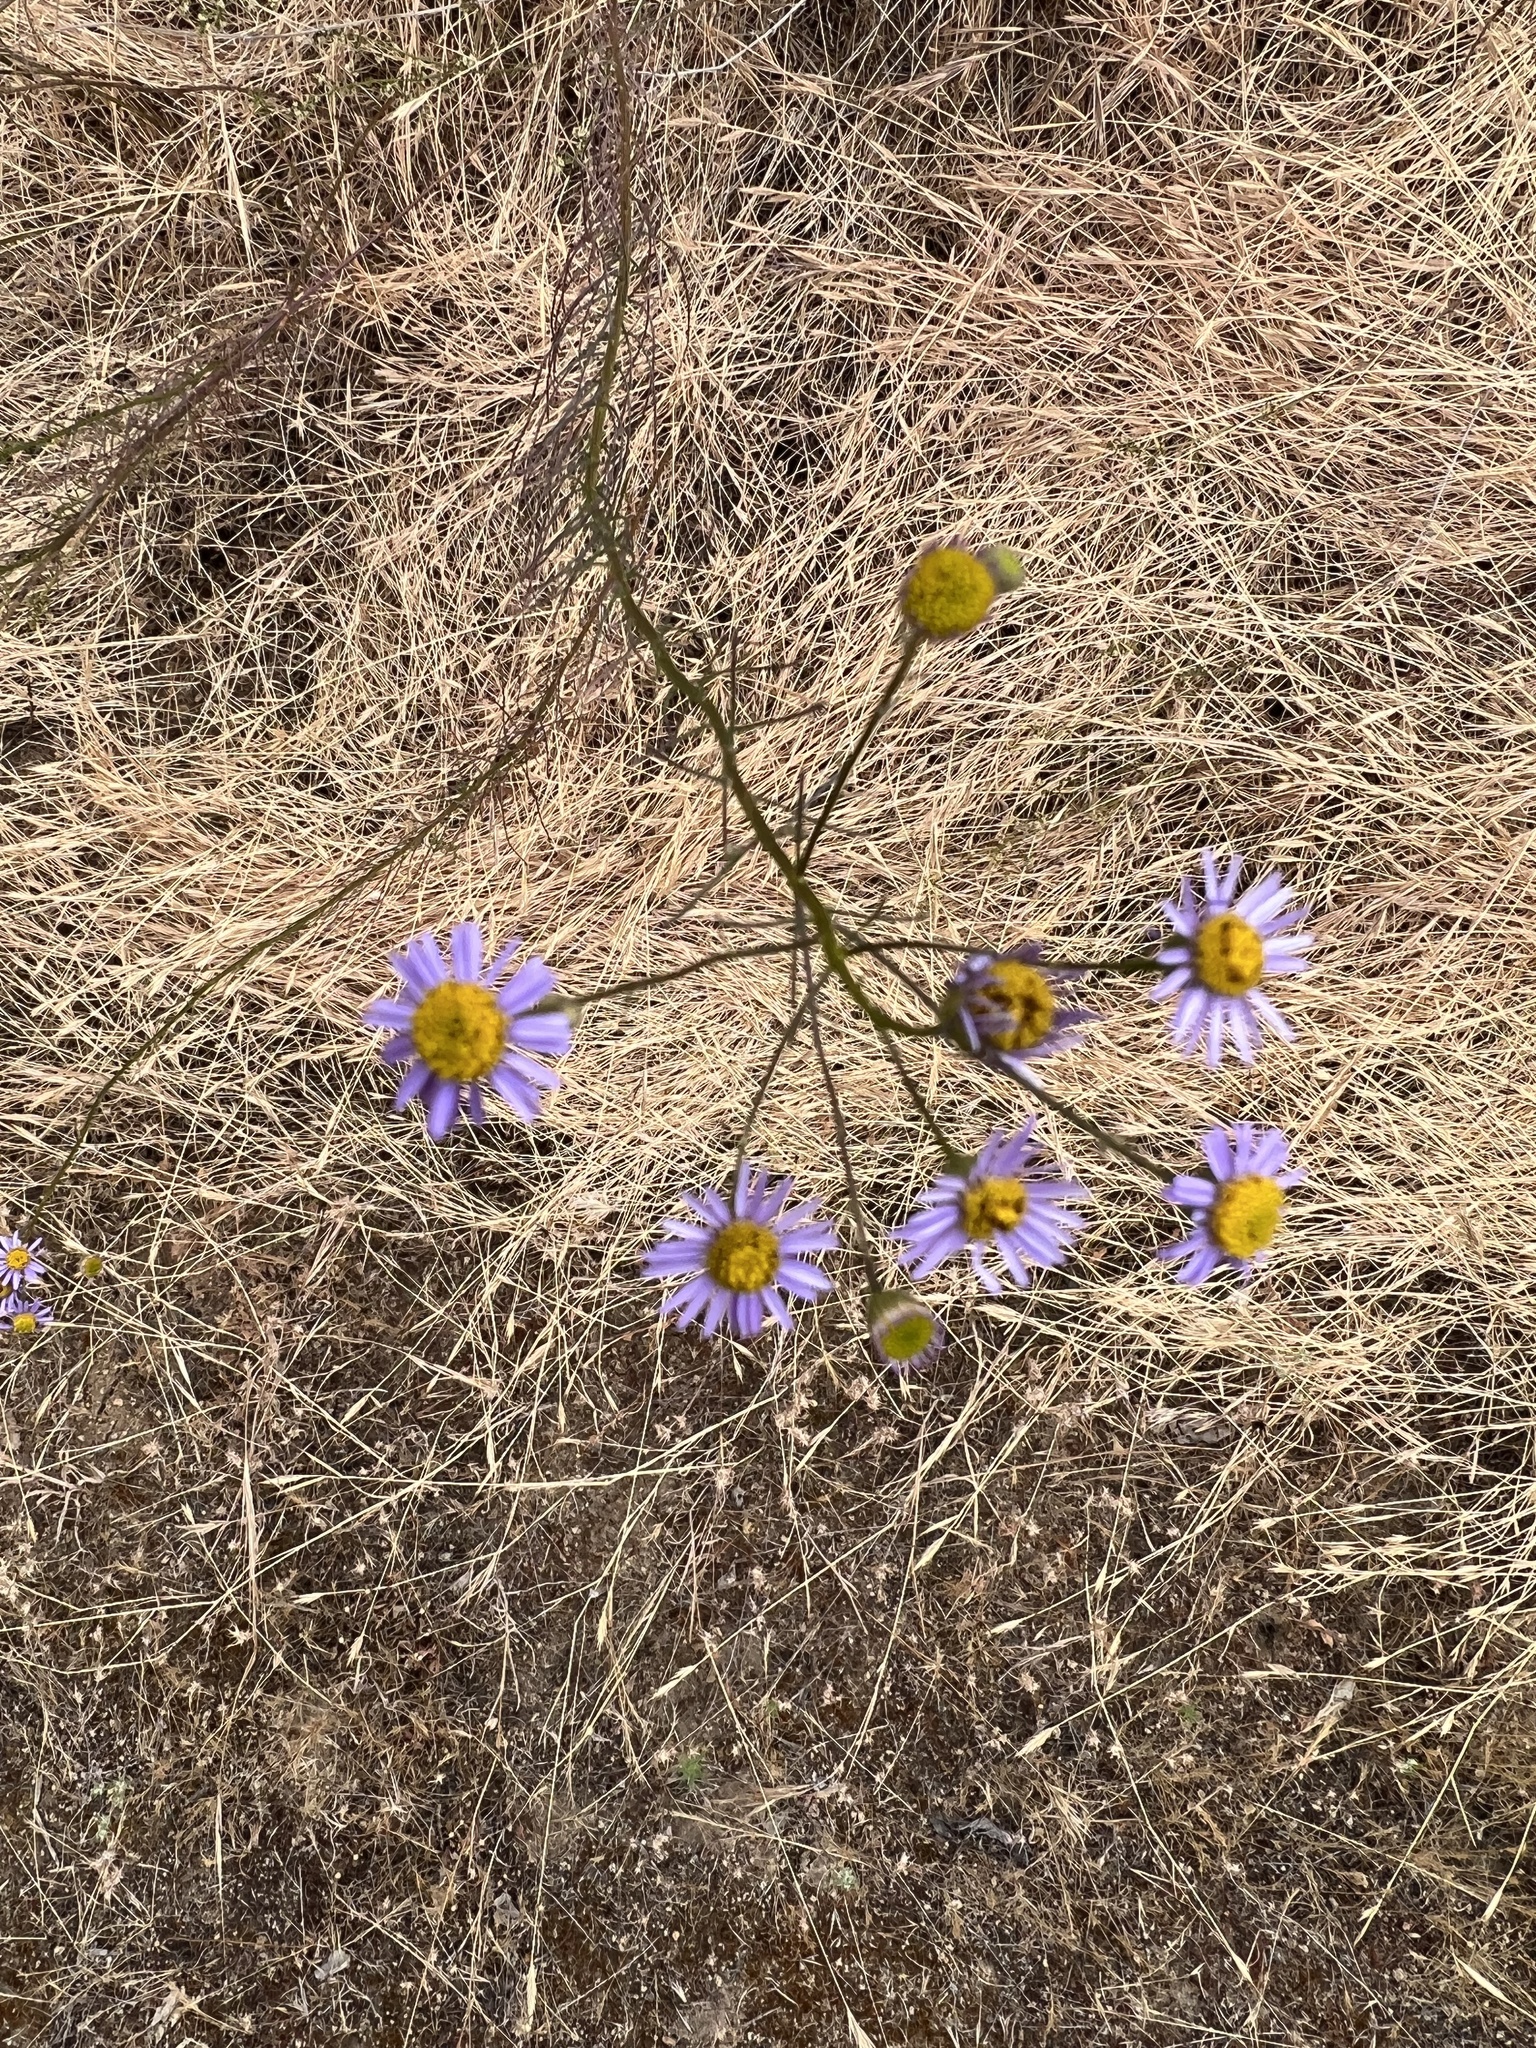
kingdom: Plantae
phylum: Tracheophyta
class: Magnoliopsida
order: Asterales
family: Asteraceae
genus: Erigeron
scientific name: Erigeron foliosus
